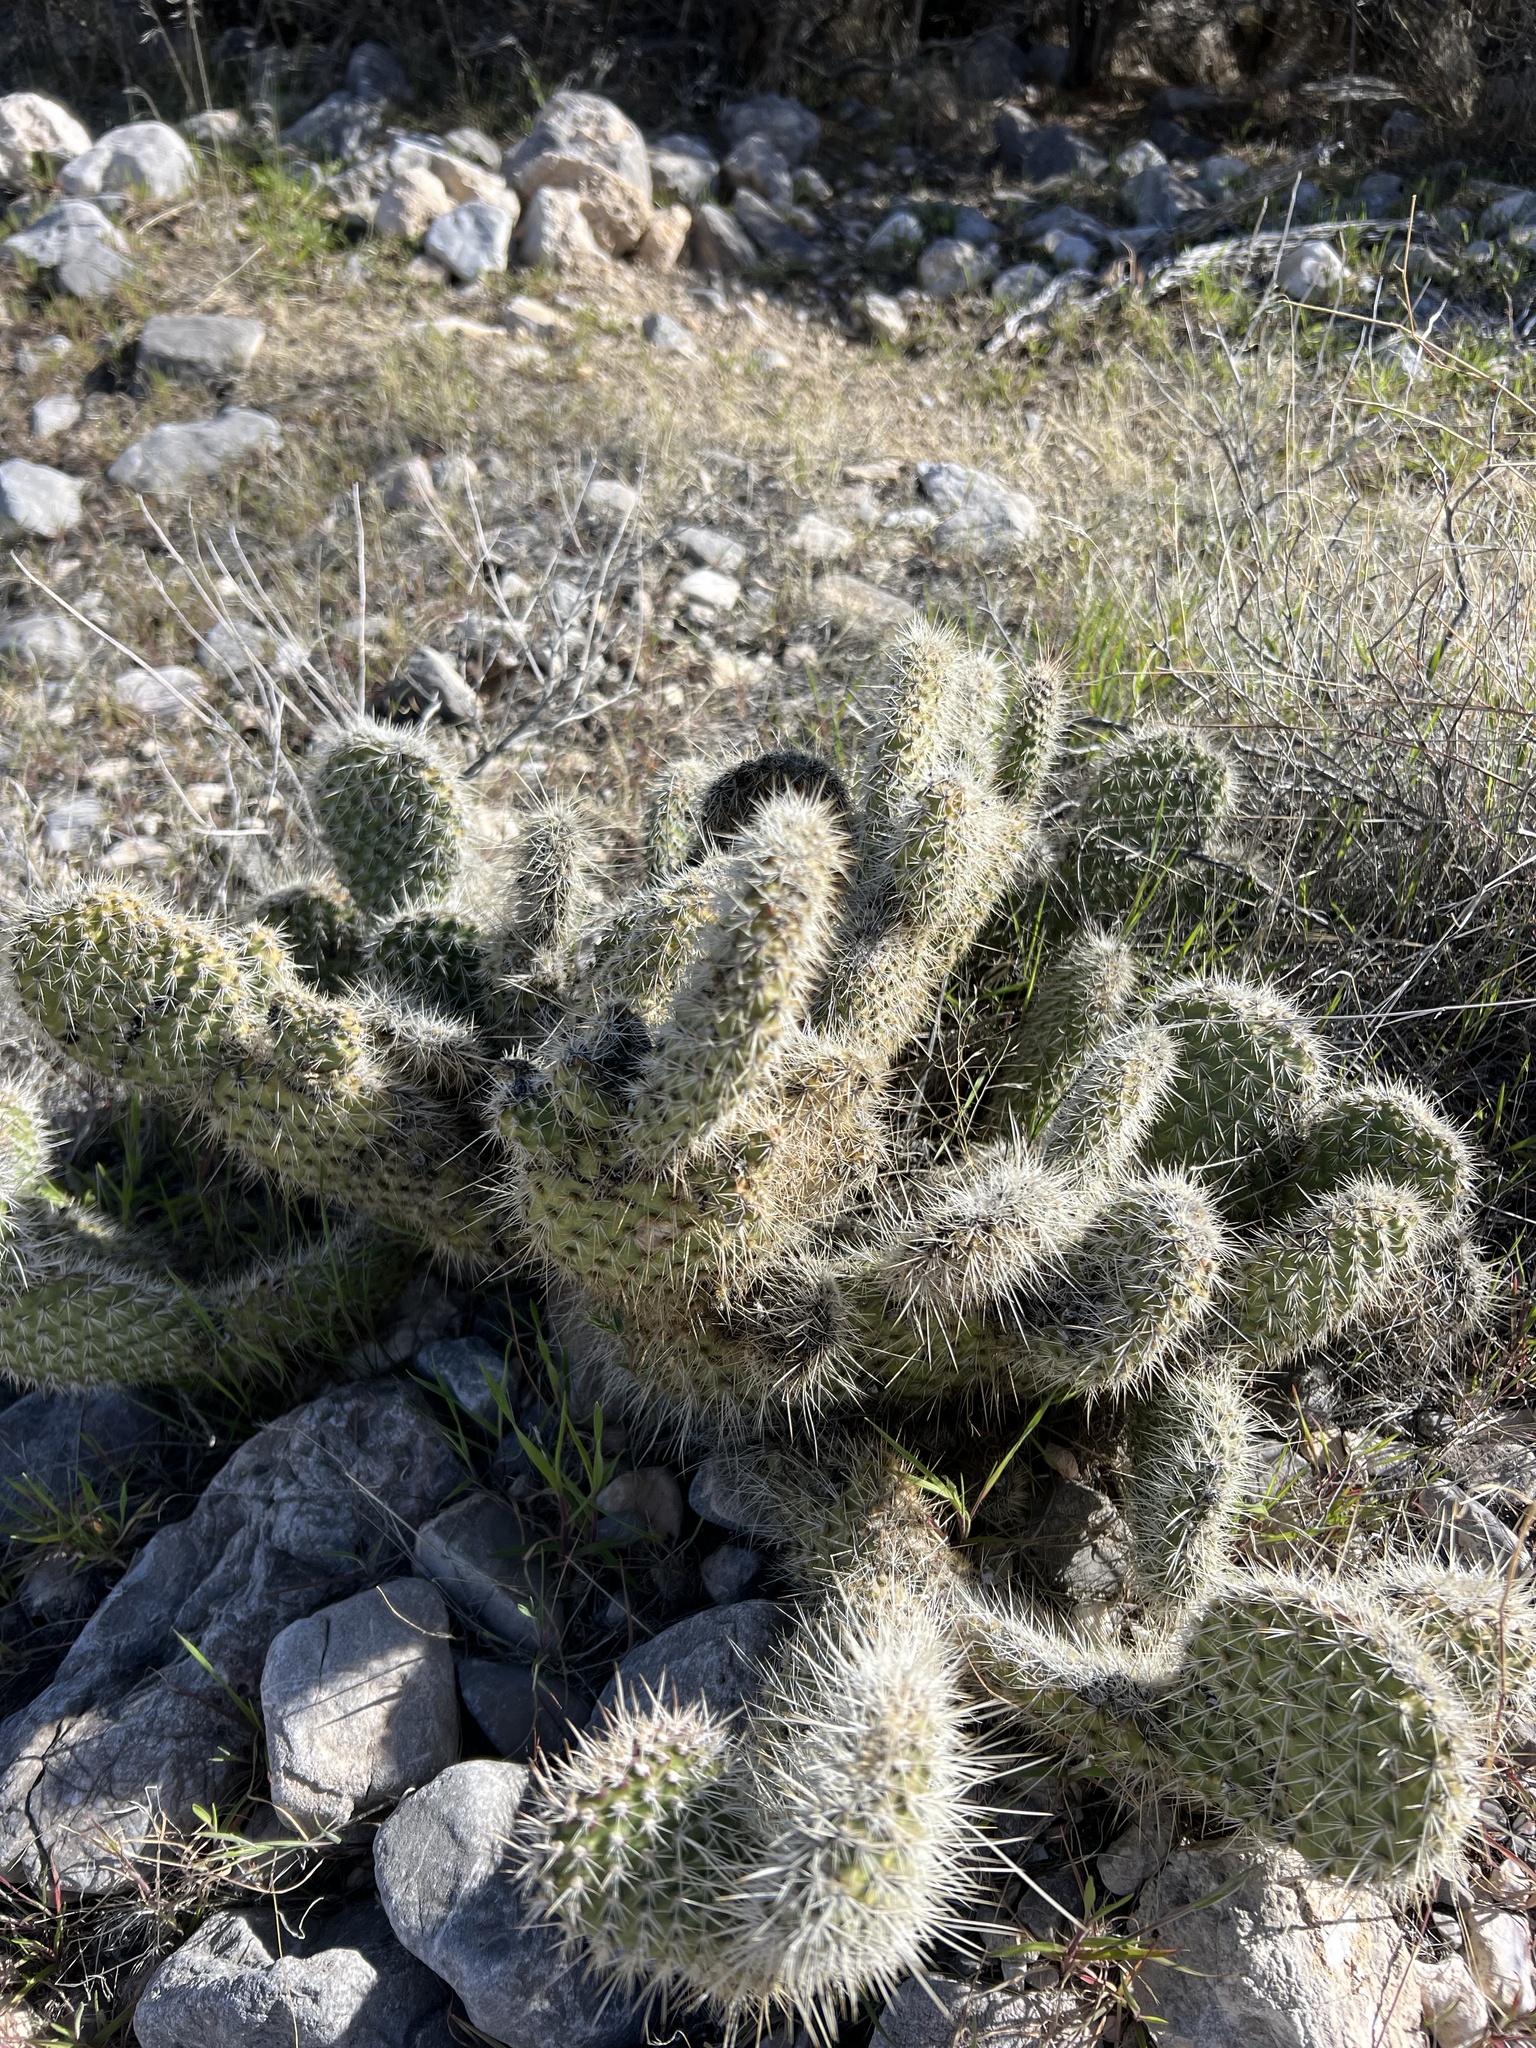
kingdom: Plantae
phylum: Tracheophyta
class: Magnoliopsida
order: Caryophyllales
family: Cactaceae
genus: Opuntia
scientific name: Opuntia polyacantha
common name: Plains prickly-pear
